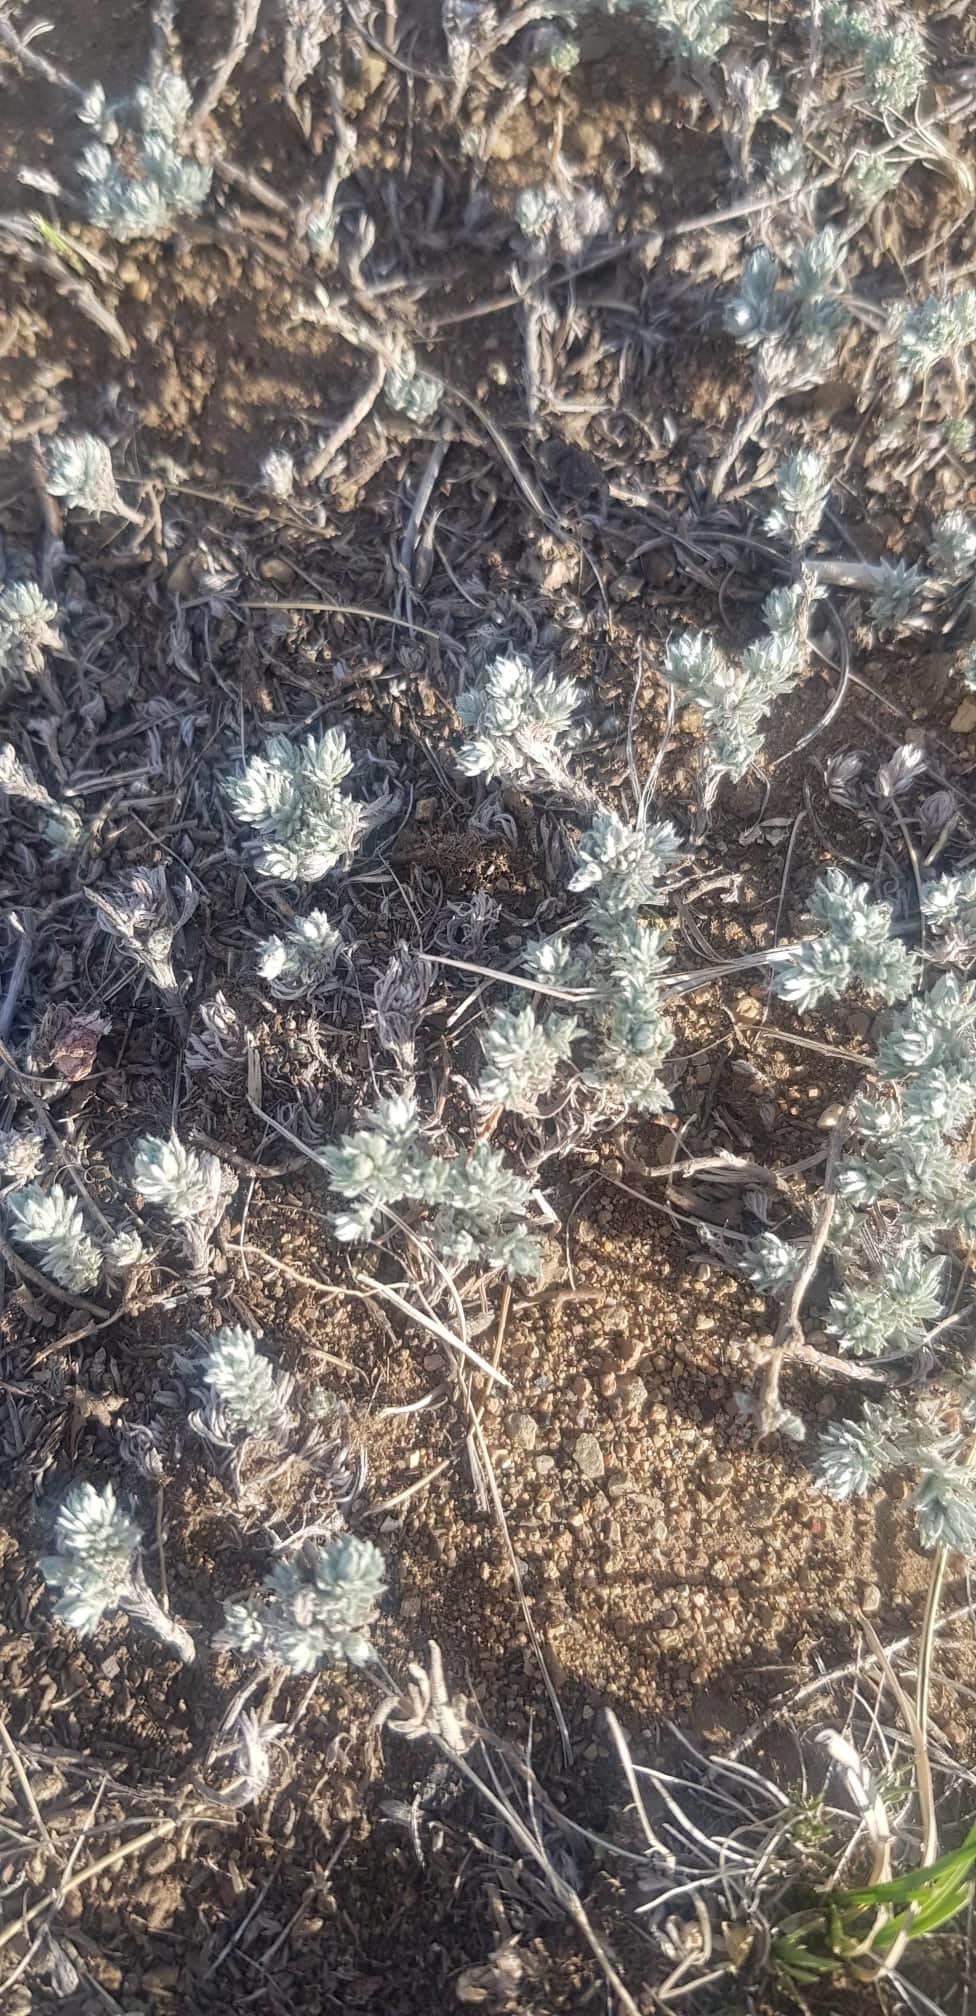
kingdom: Plantae
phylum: Tracheophyta
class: Magnoliopsida
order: Asterales
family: Asteraceae
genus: Artemisia
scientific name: Artemisia frigida
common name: Prairie sagewort
